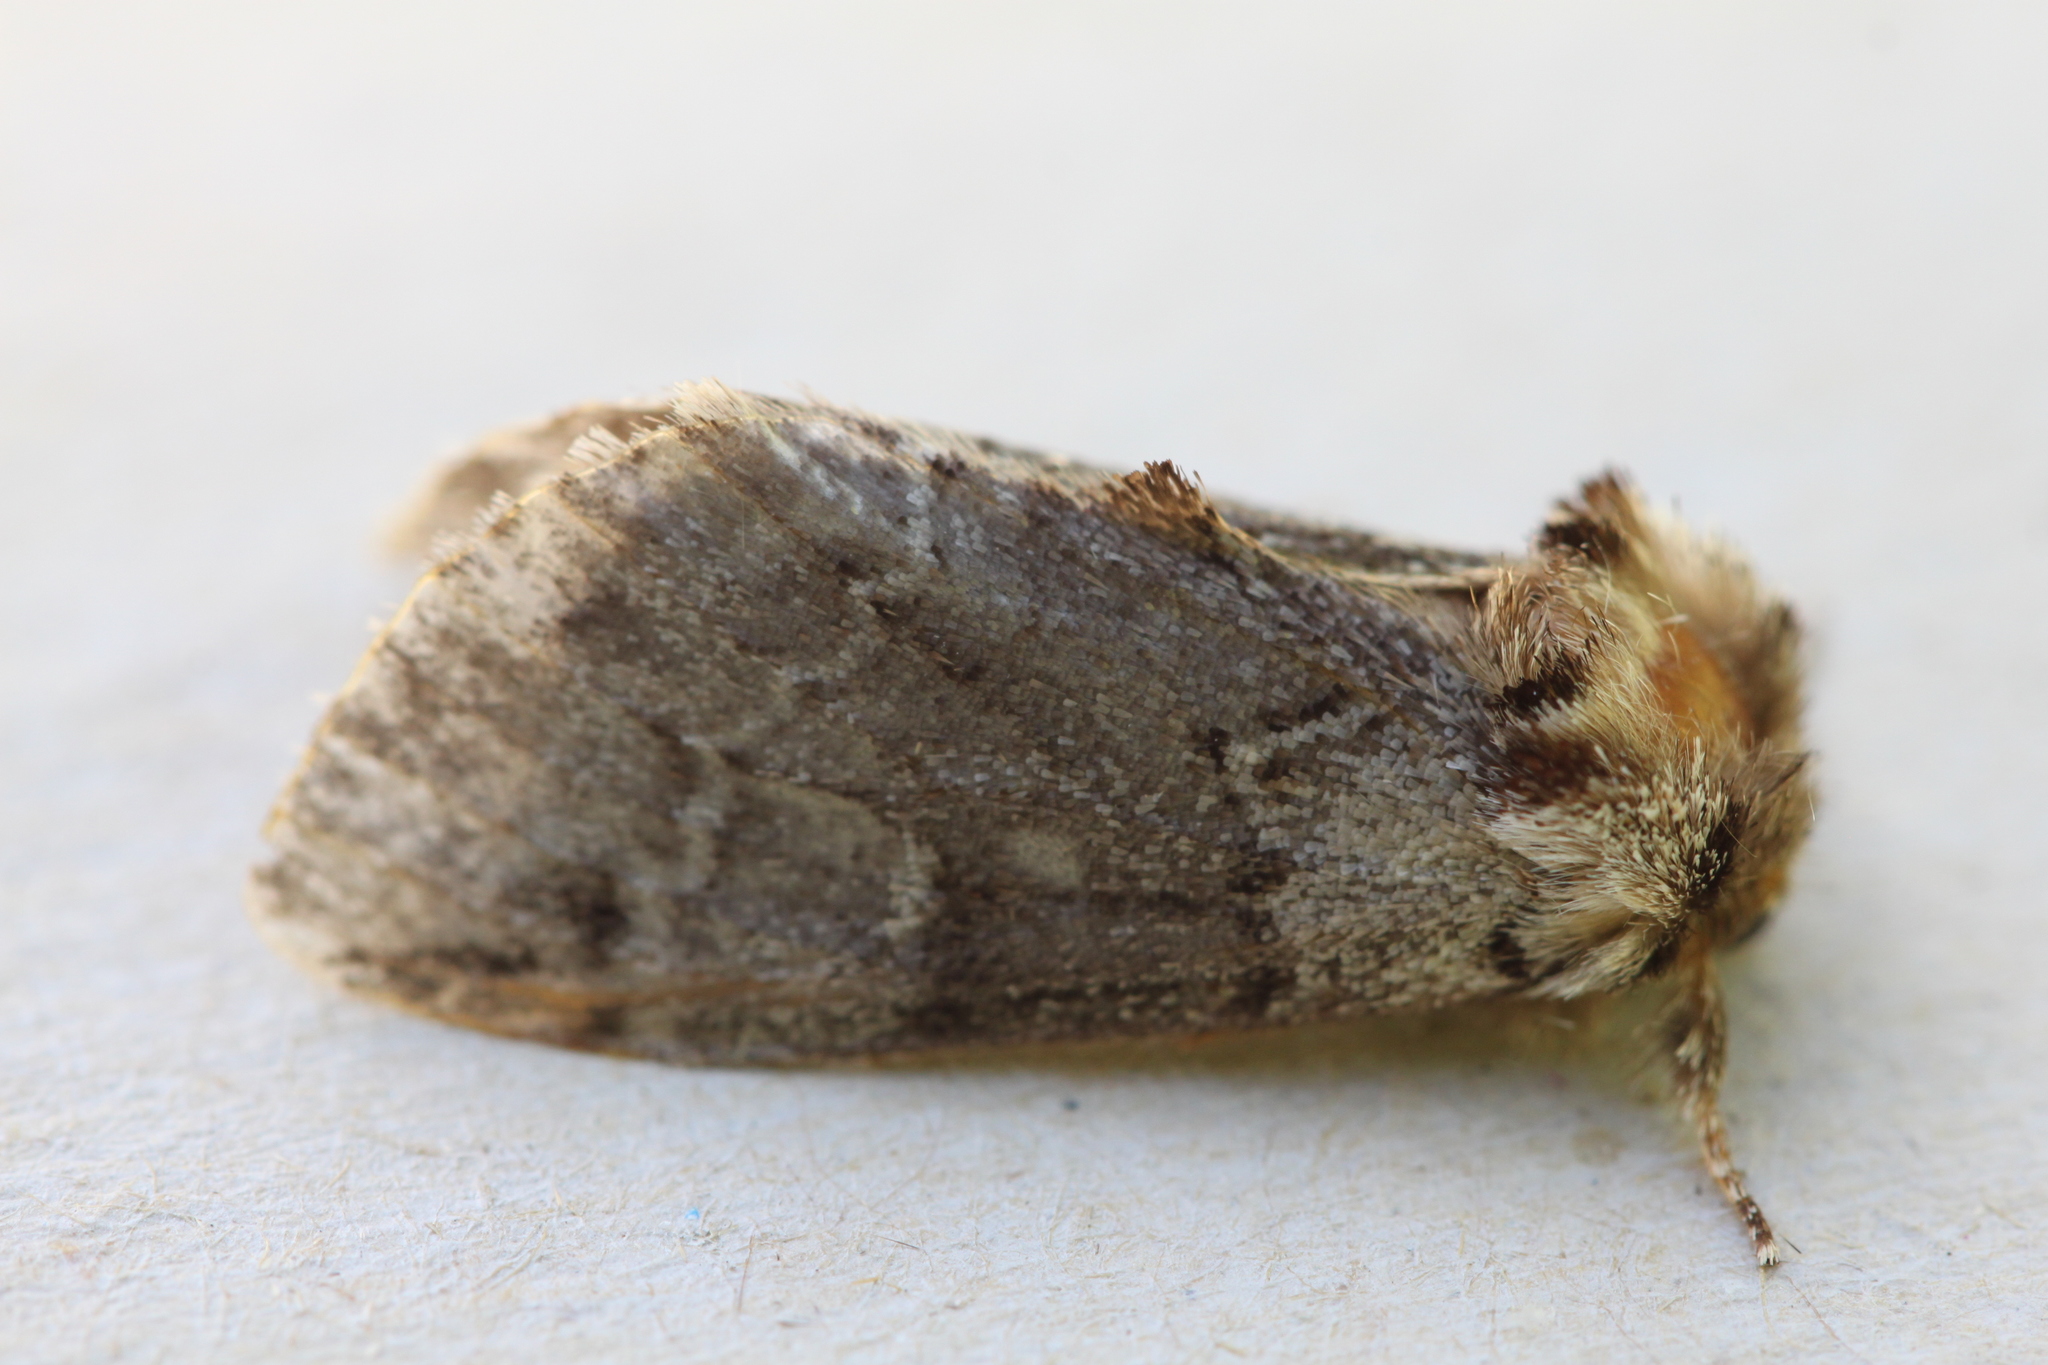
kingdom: Animalia
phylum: Arthropoda
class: Insecta
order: Lepidoptera
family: Notodontidae
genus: Drymonia
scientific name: Drymonia obliterata
